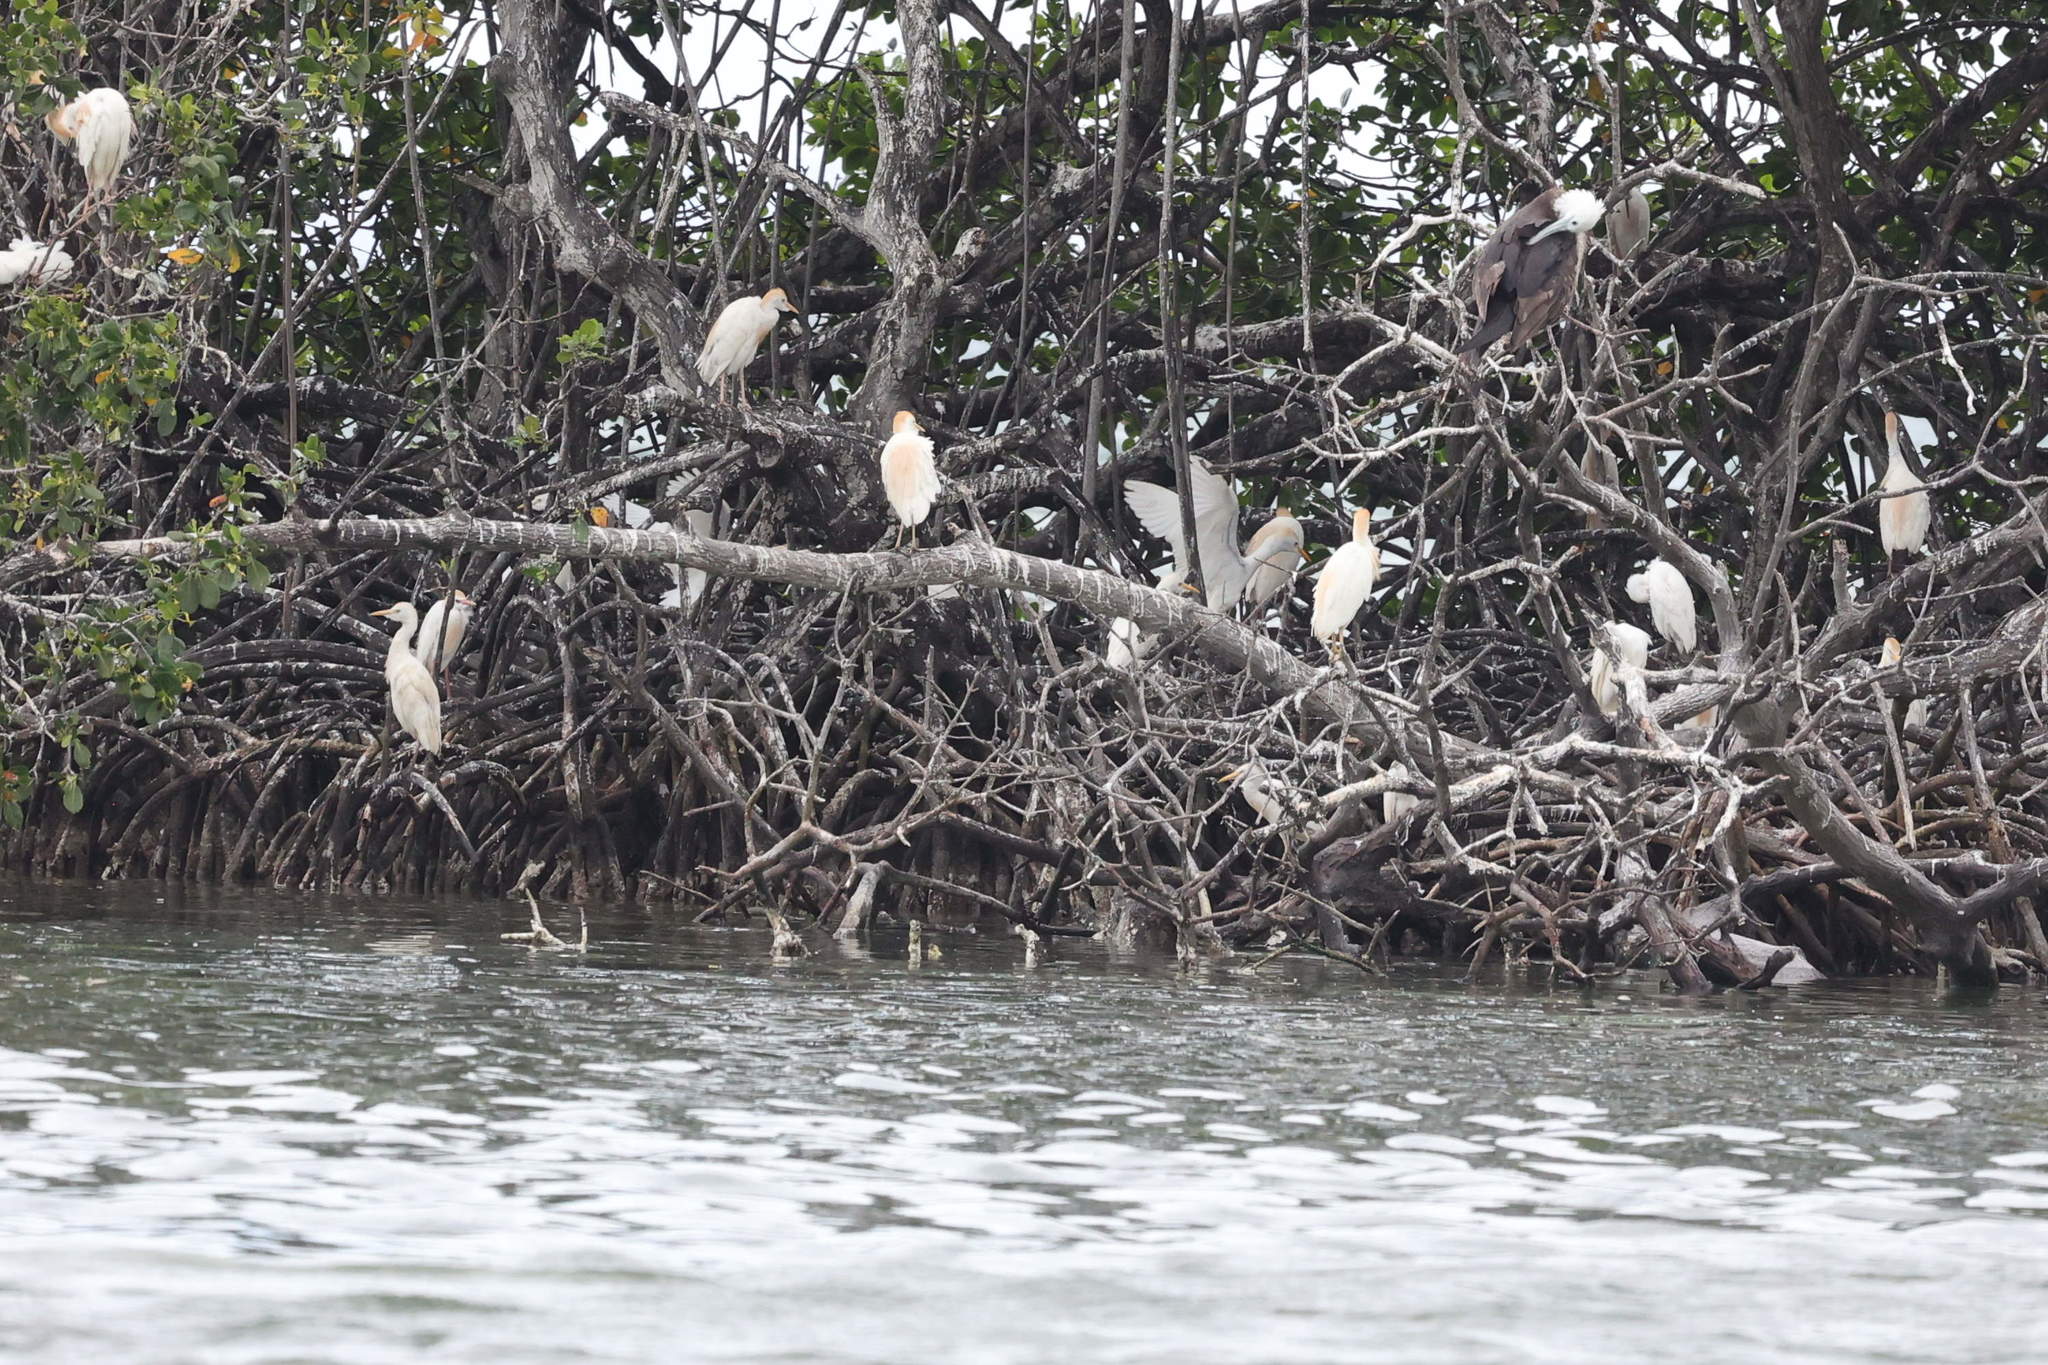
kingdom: Animalia
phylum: Chordata
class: Aves
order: Pelecaniformes
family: Ardeidae
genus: Bubulcus
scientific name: Bubulcus ibis
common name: Cattle egret
